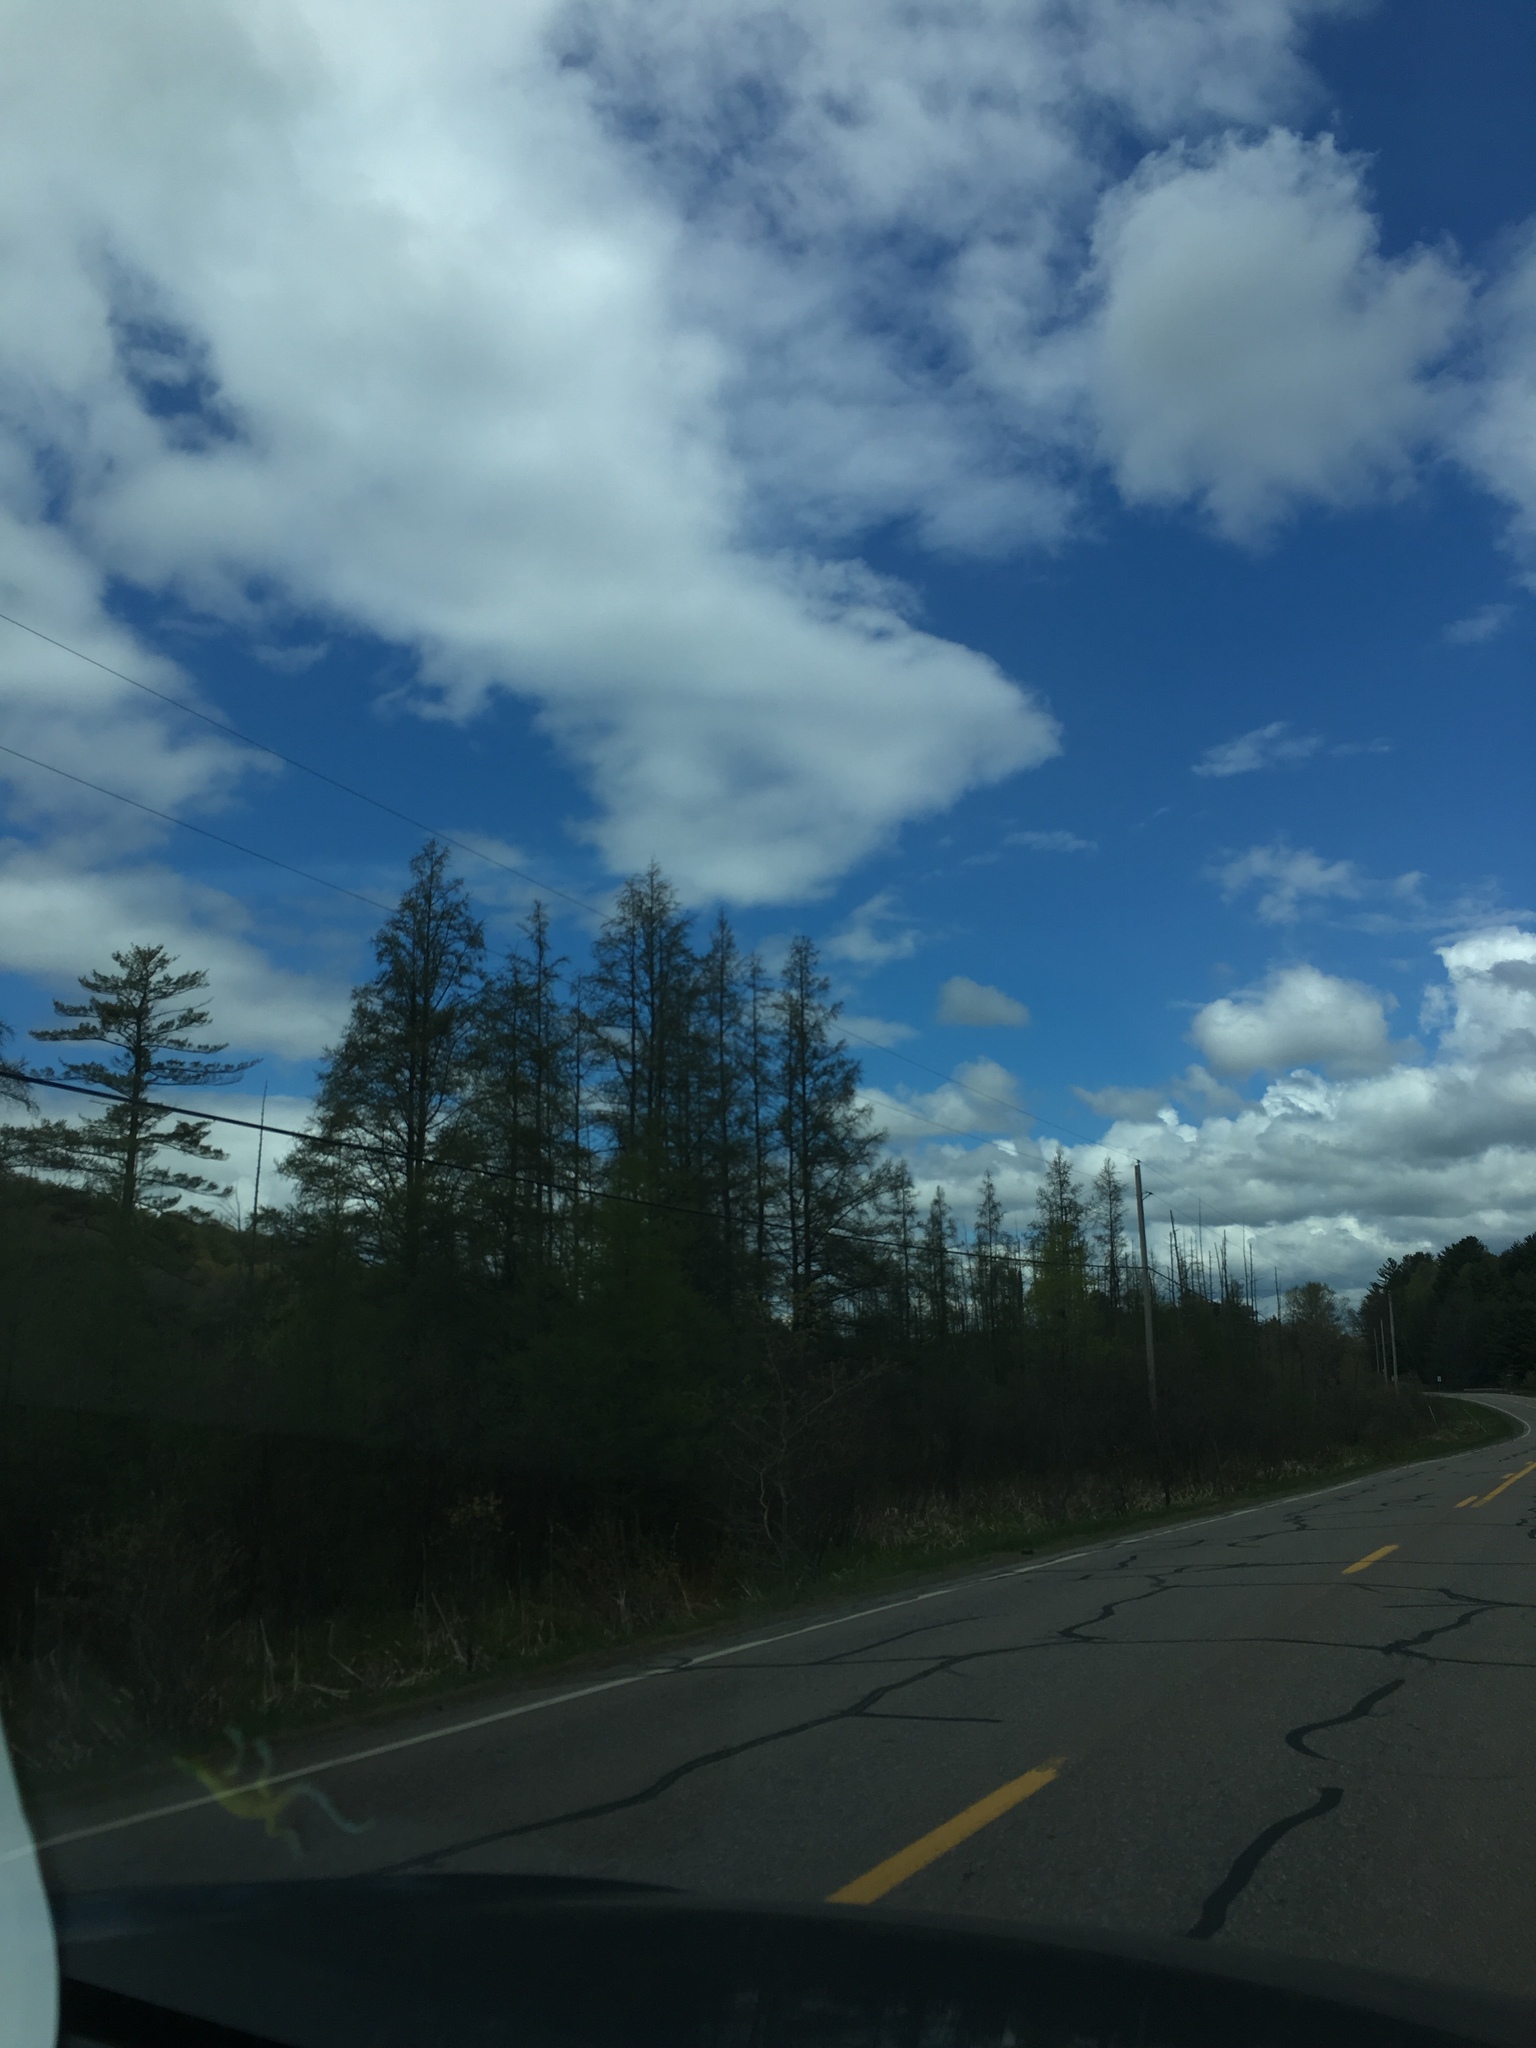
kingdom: Plantae
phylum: Tracheophyta
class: Pinopsida
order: Pinales
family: Pinaceae
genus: Larix
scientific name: Larix laricina
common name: American larch
